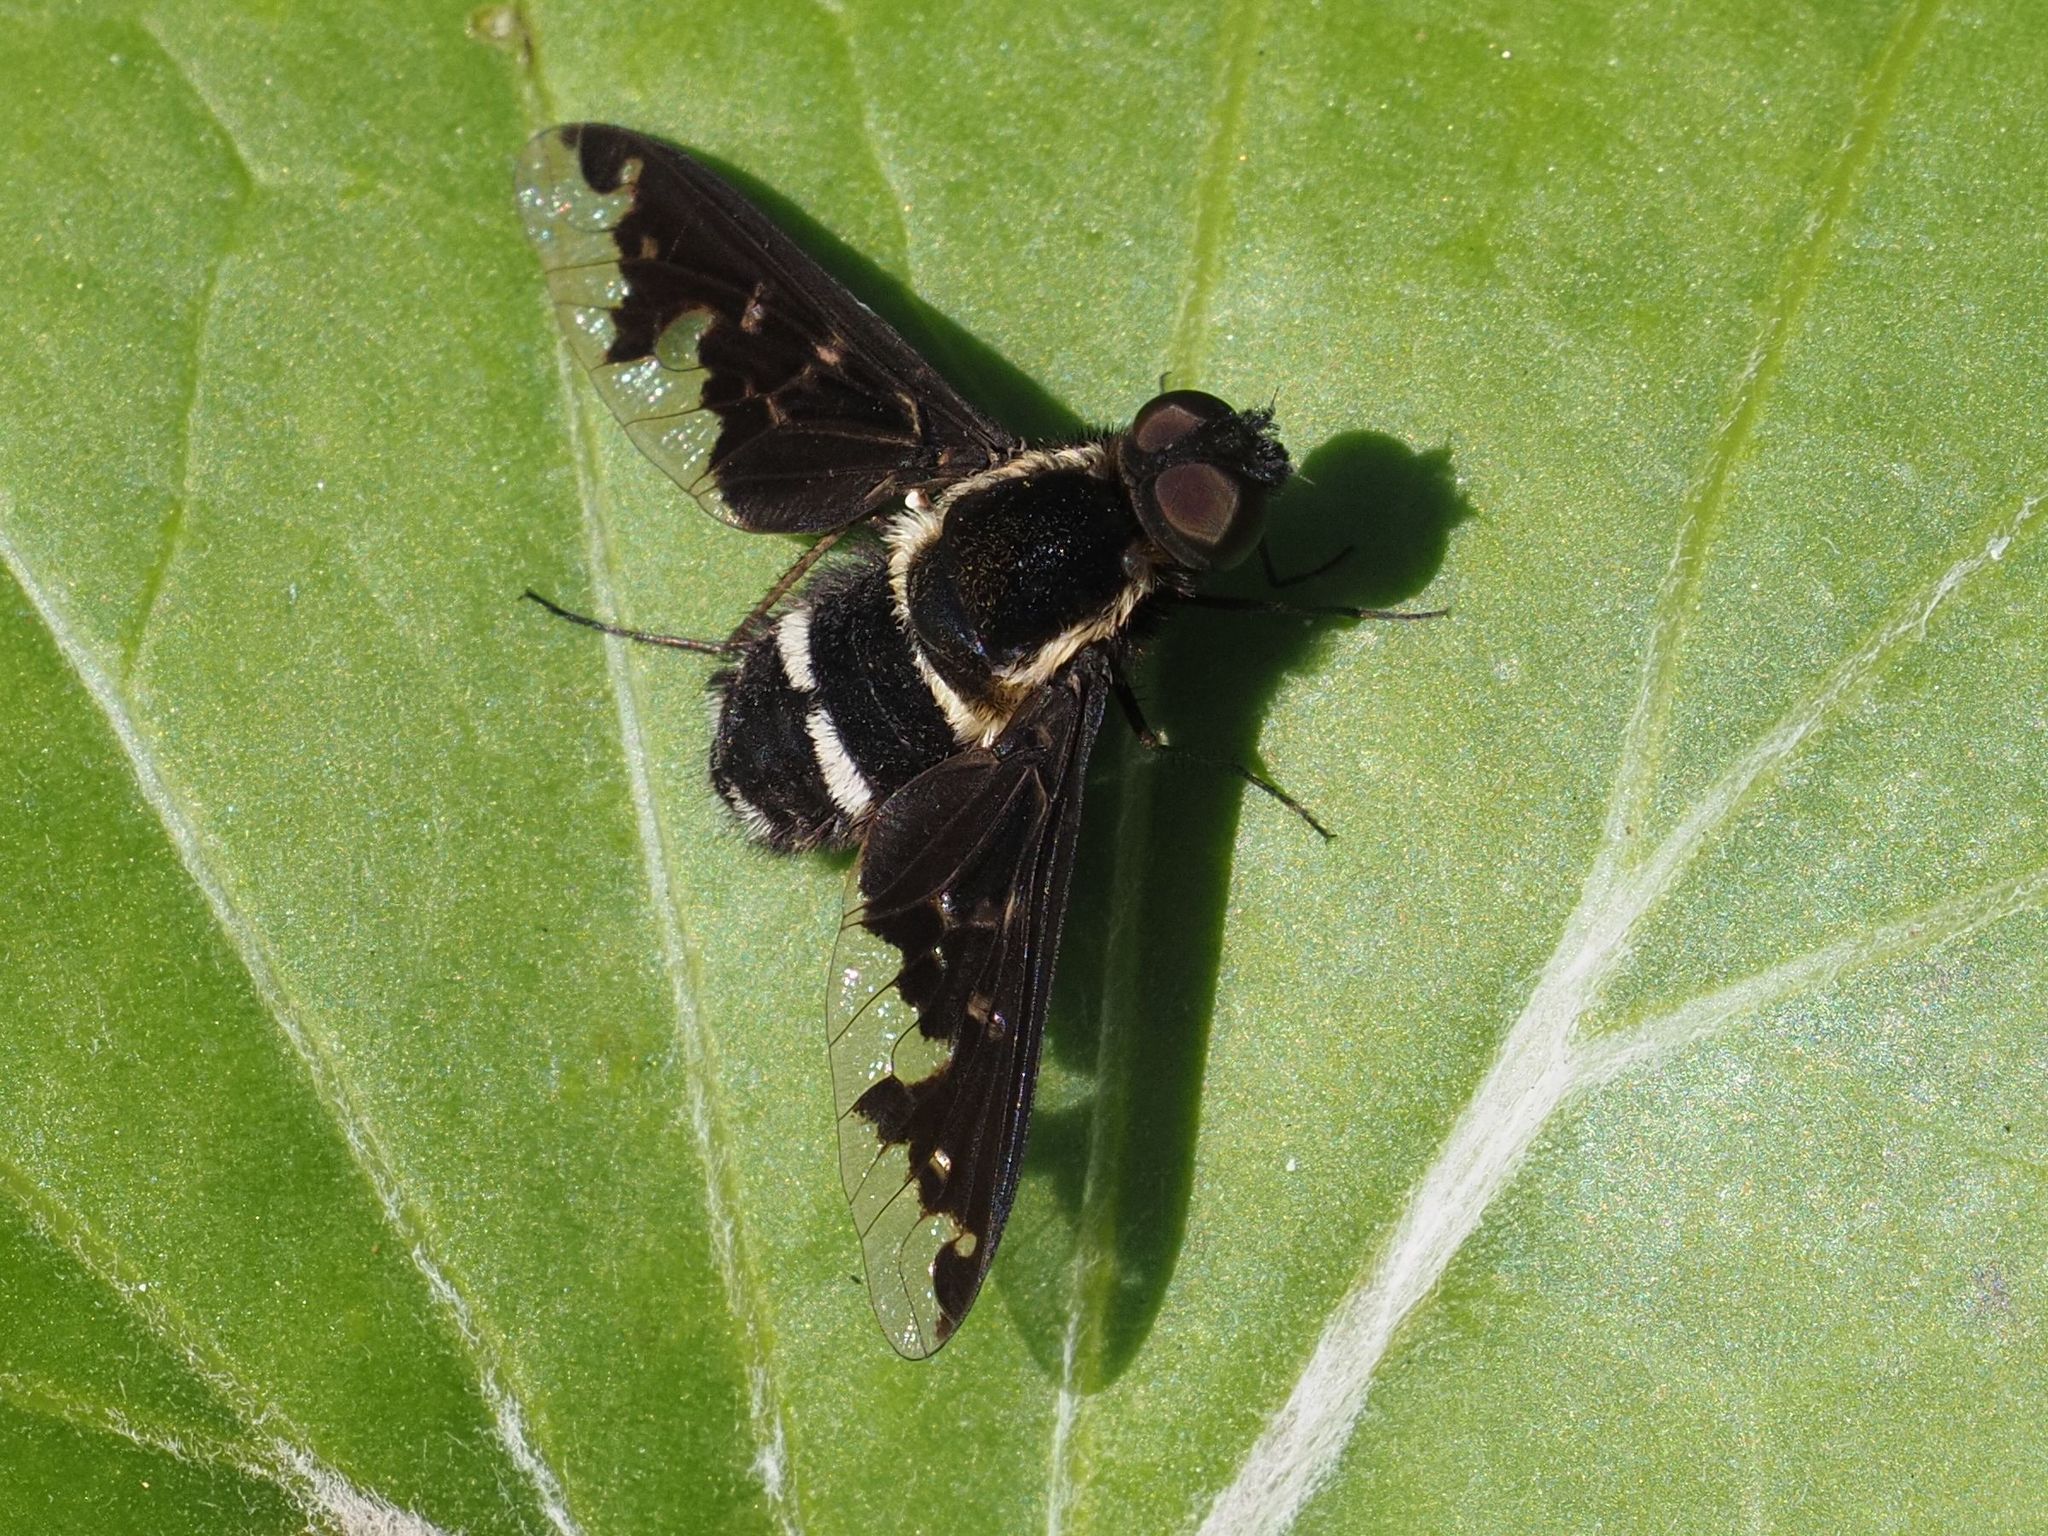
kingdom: Animalia
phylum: Arthropoda
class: Insecta
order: Diptera
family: Bombyliidae
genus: Hemipenthes
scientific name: Hemipenthes maura
